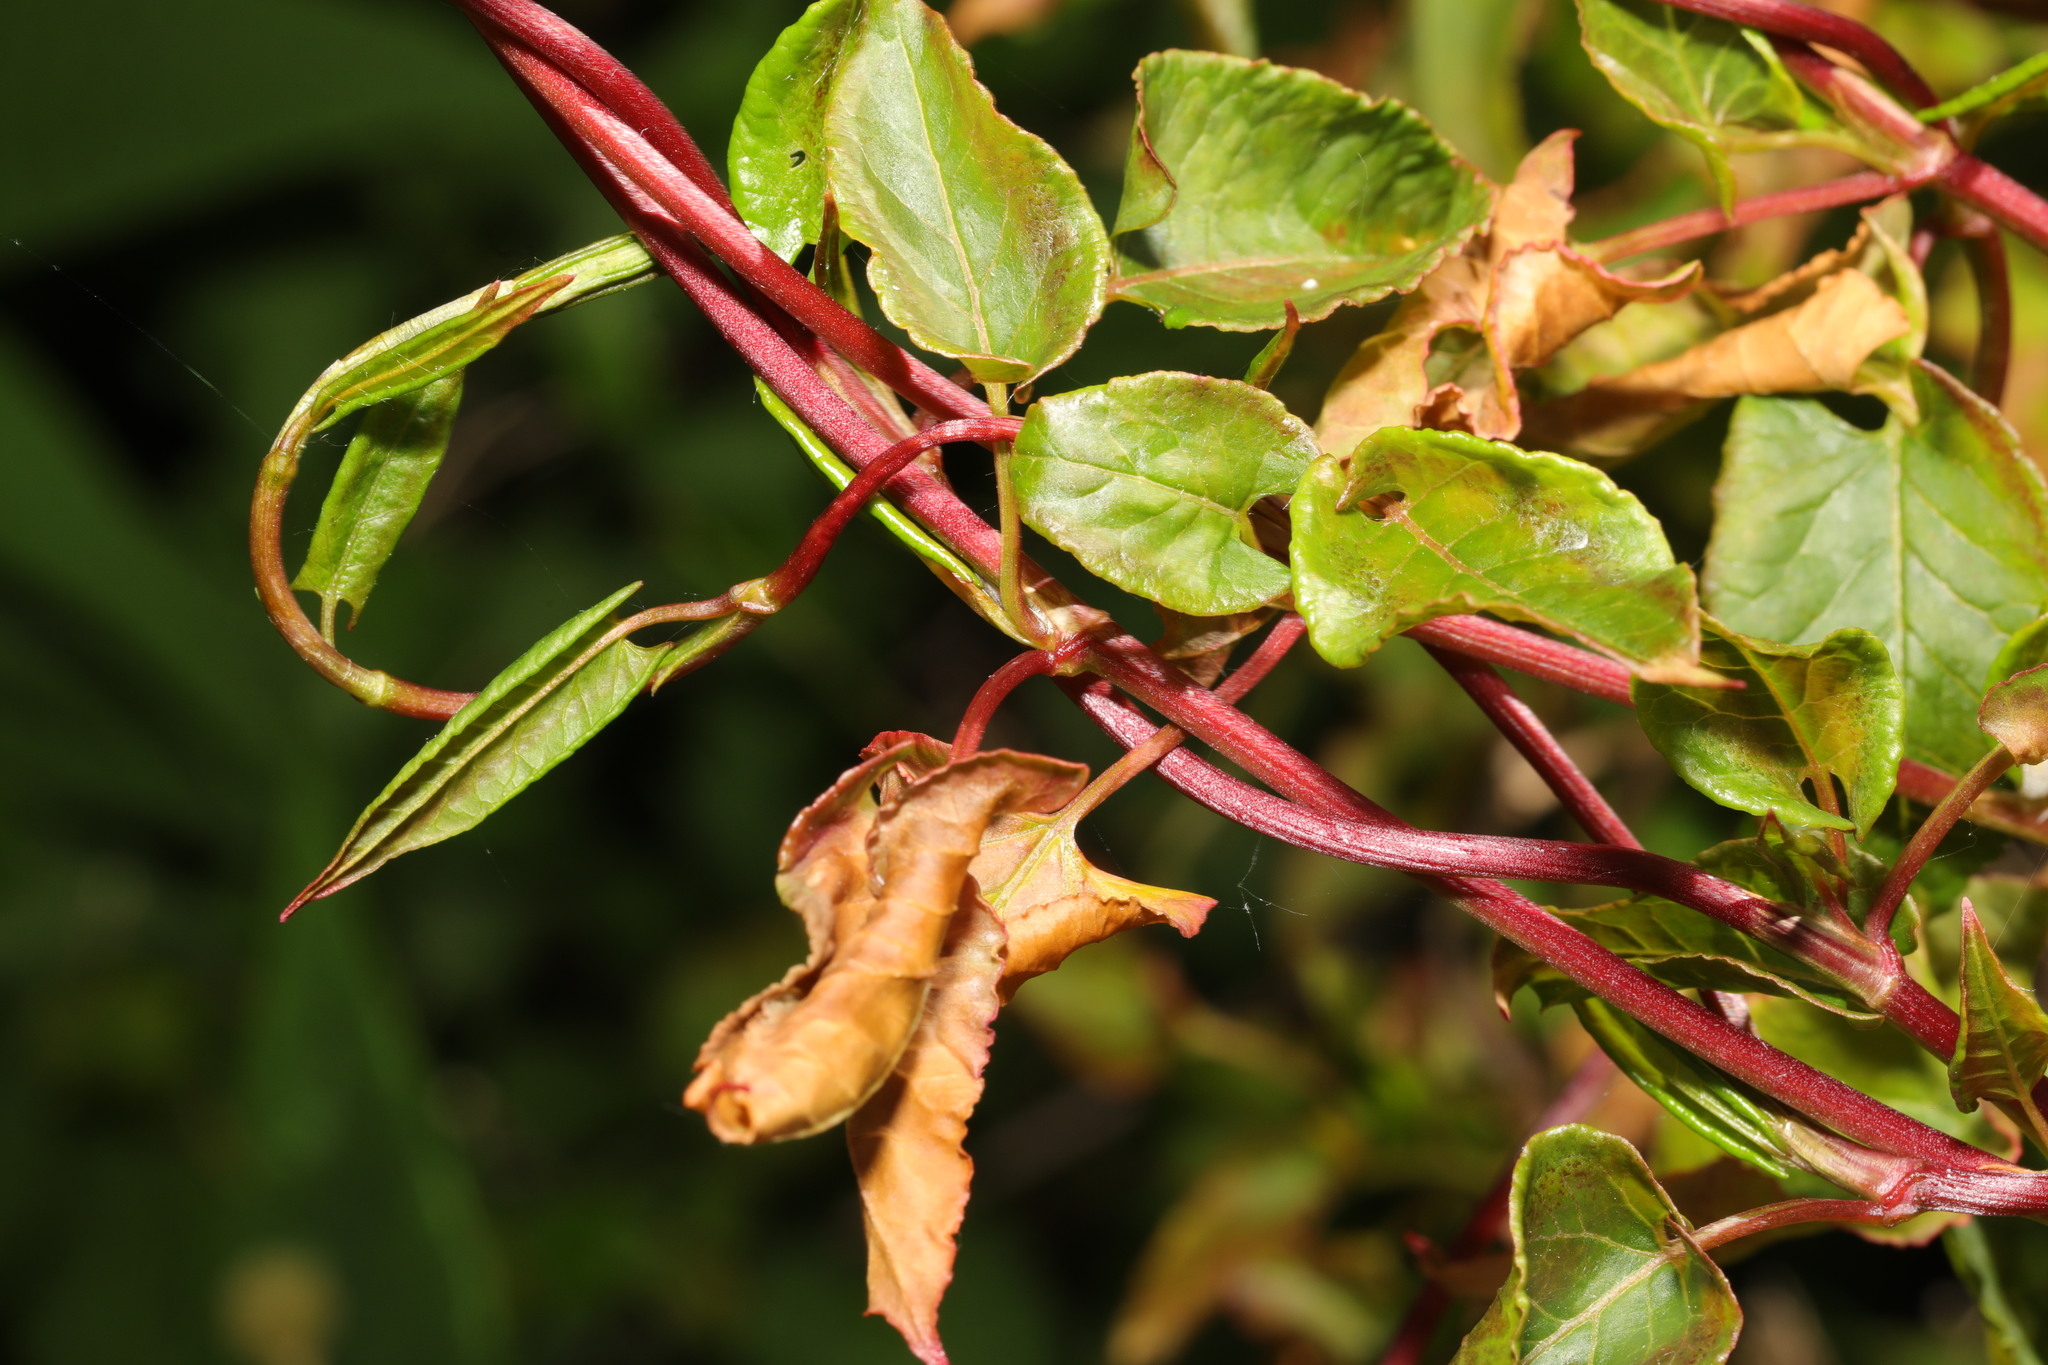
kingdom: Plantae
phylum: Tracheophyta
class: Magnoliopsida
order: Caryophyllales
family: Polygonaceae
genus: Fallopia
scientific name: Fallopia baldschuanica
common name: Russian-vine
